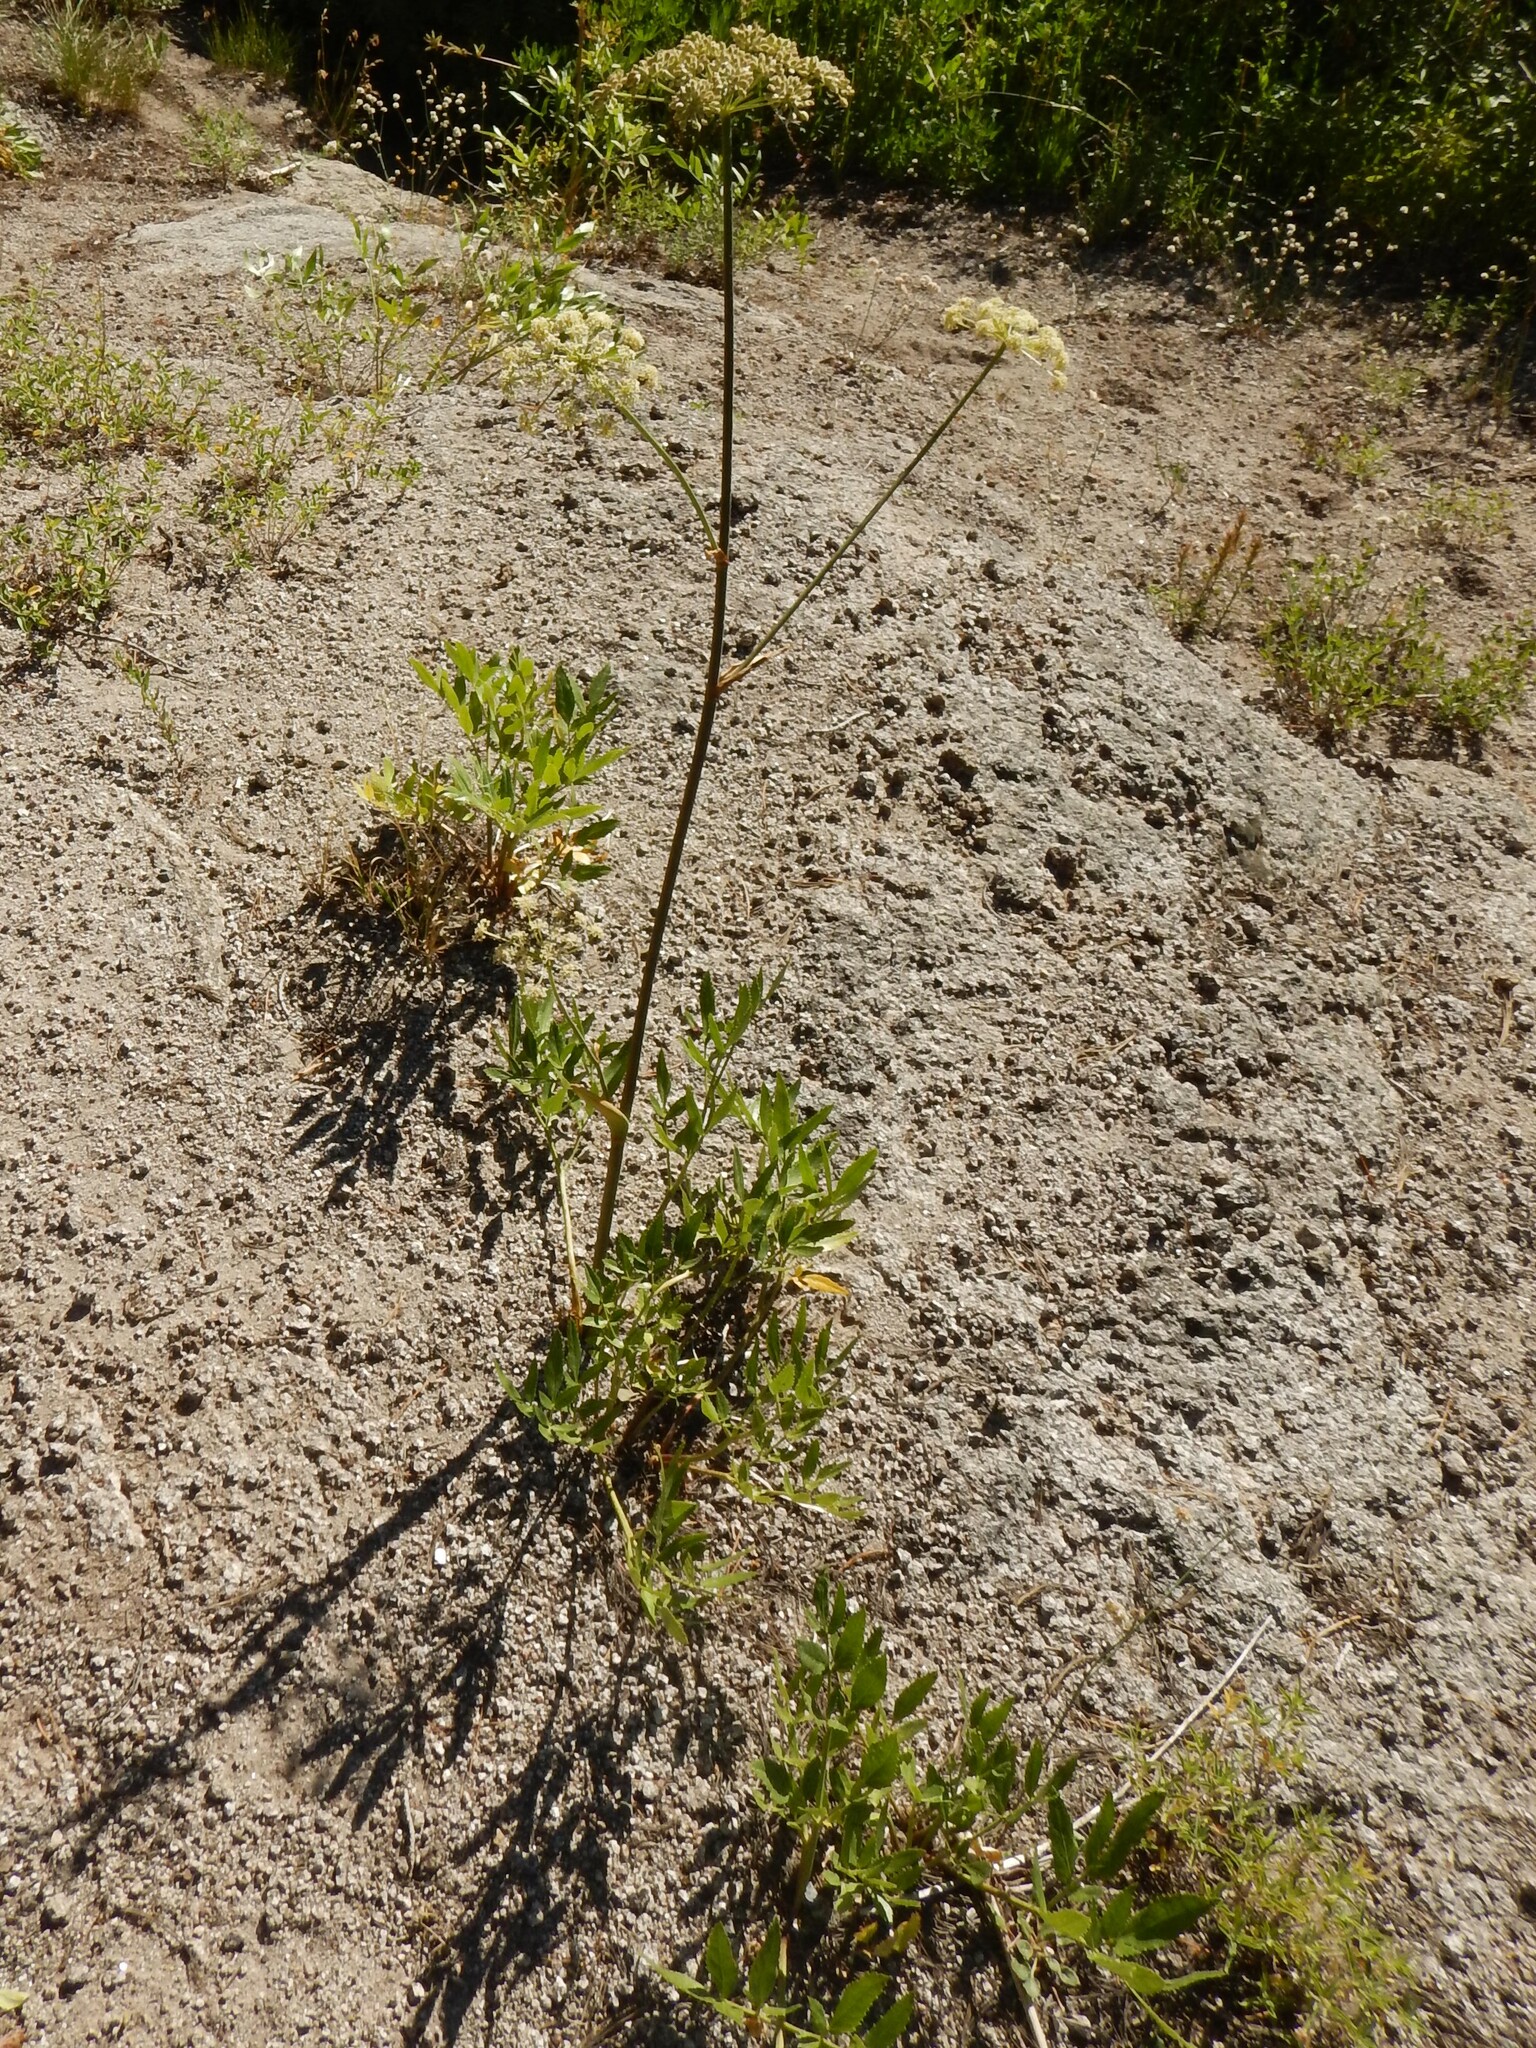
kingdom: Plantae
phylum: Tracheophyta
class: Magnoliopsida
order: Apiales
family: Apiaceae
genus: Angelica
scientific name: Angelica breweri
